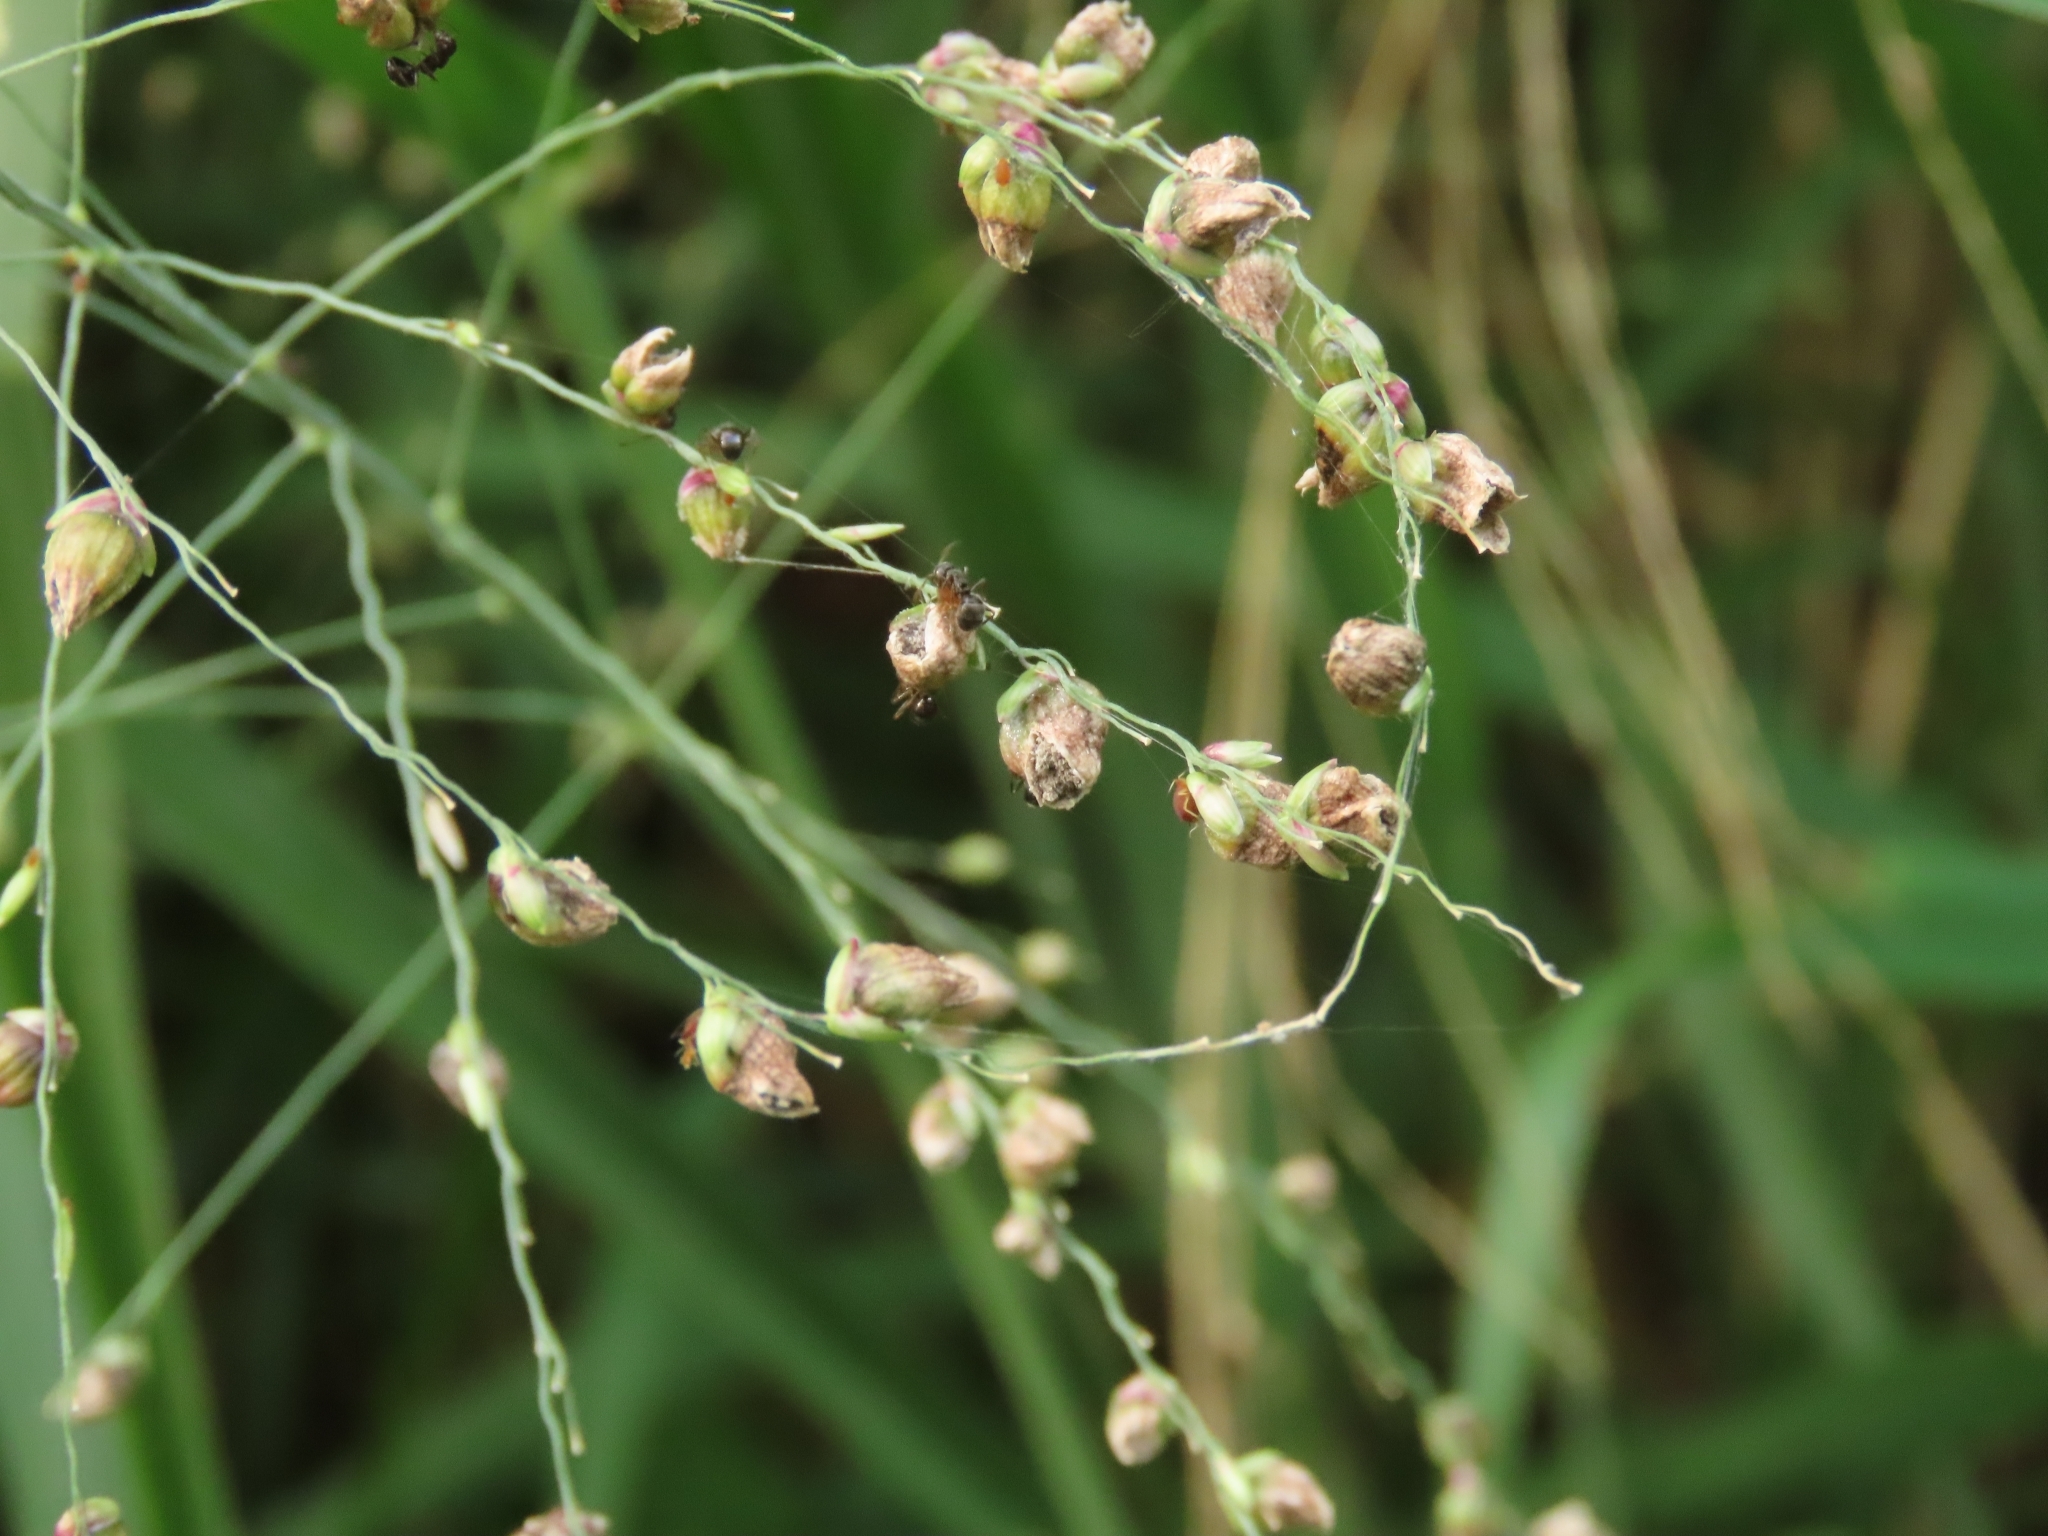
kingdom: Plantae
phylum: Tracheophyta
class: Liliopsida
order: Poales
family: Poaceae
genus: Megathyrsus
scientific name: Megathyrsus maximus
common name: Guineagrass
